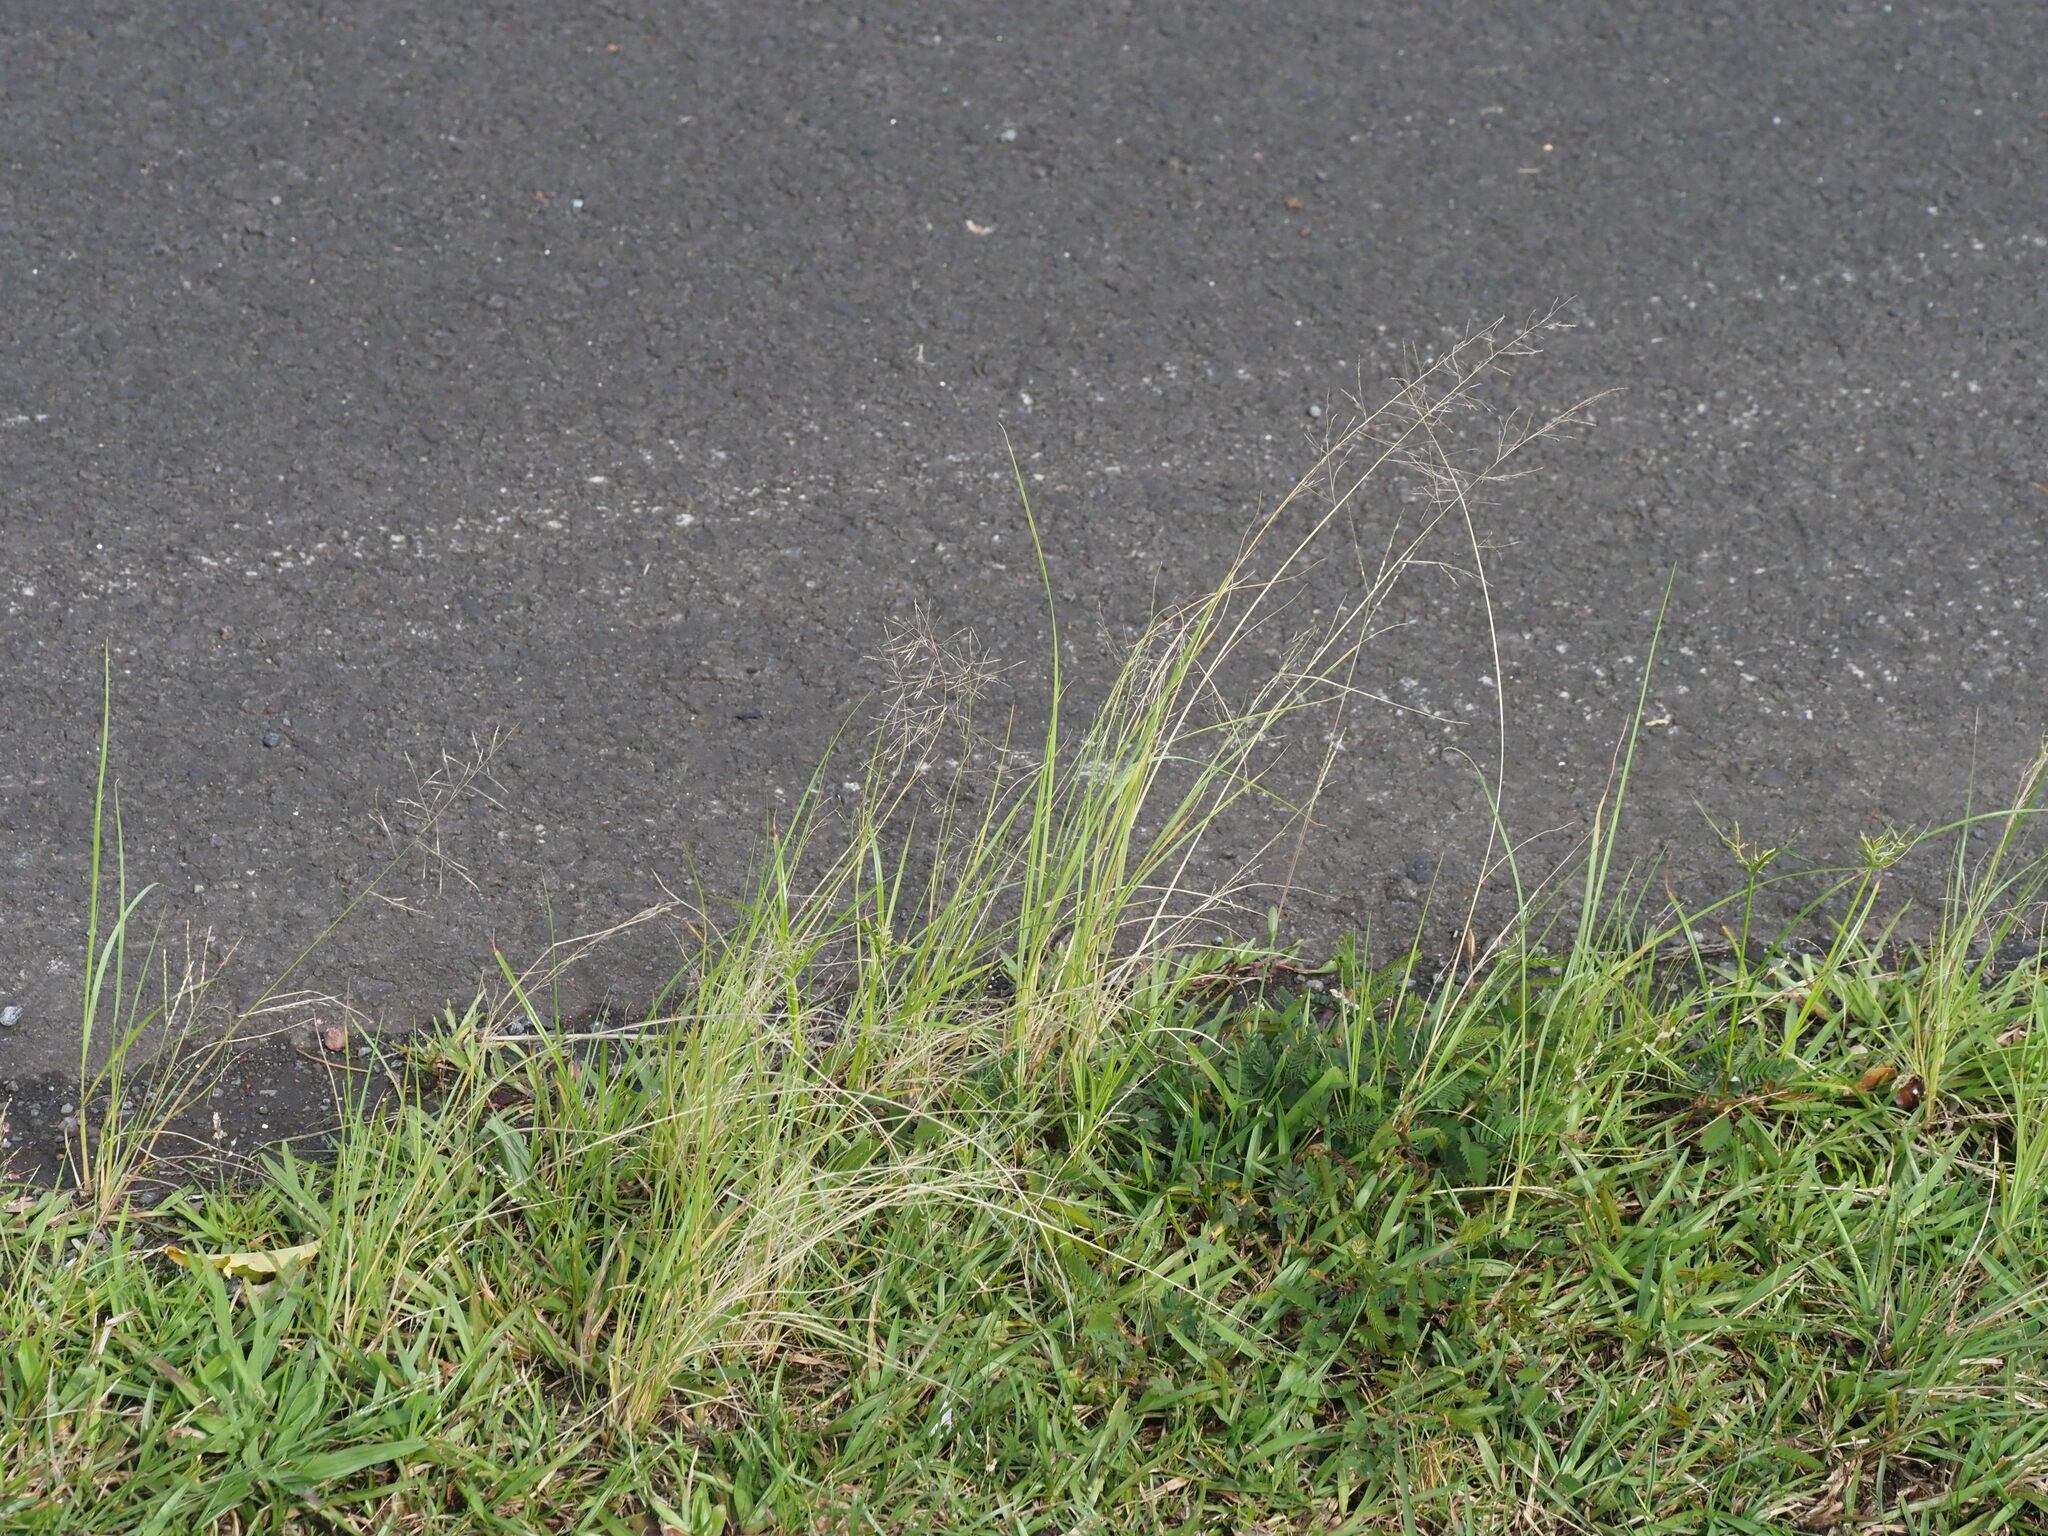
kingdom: Plantae
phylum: Tracheophyta
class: Liliopsida
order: Poales
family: Poaceae
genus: Eragrostis
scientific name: Eragrostis tenuifolia
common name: Elastic grass
